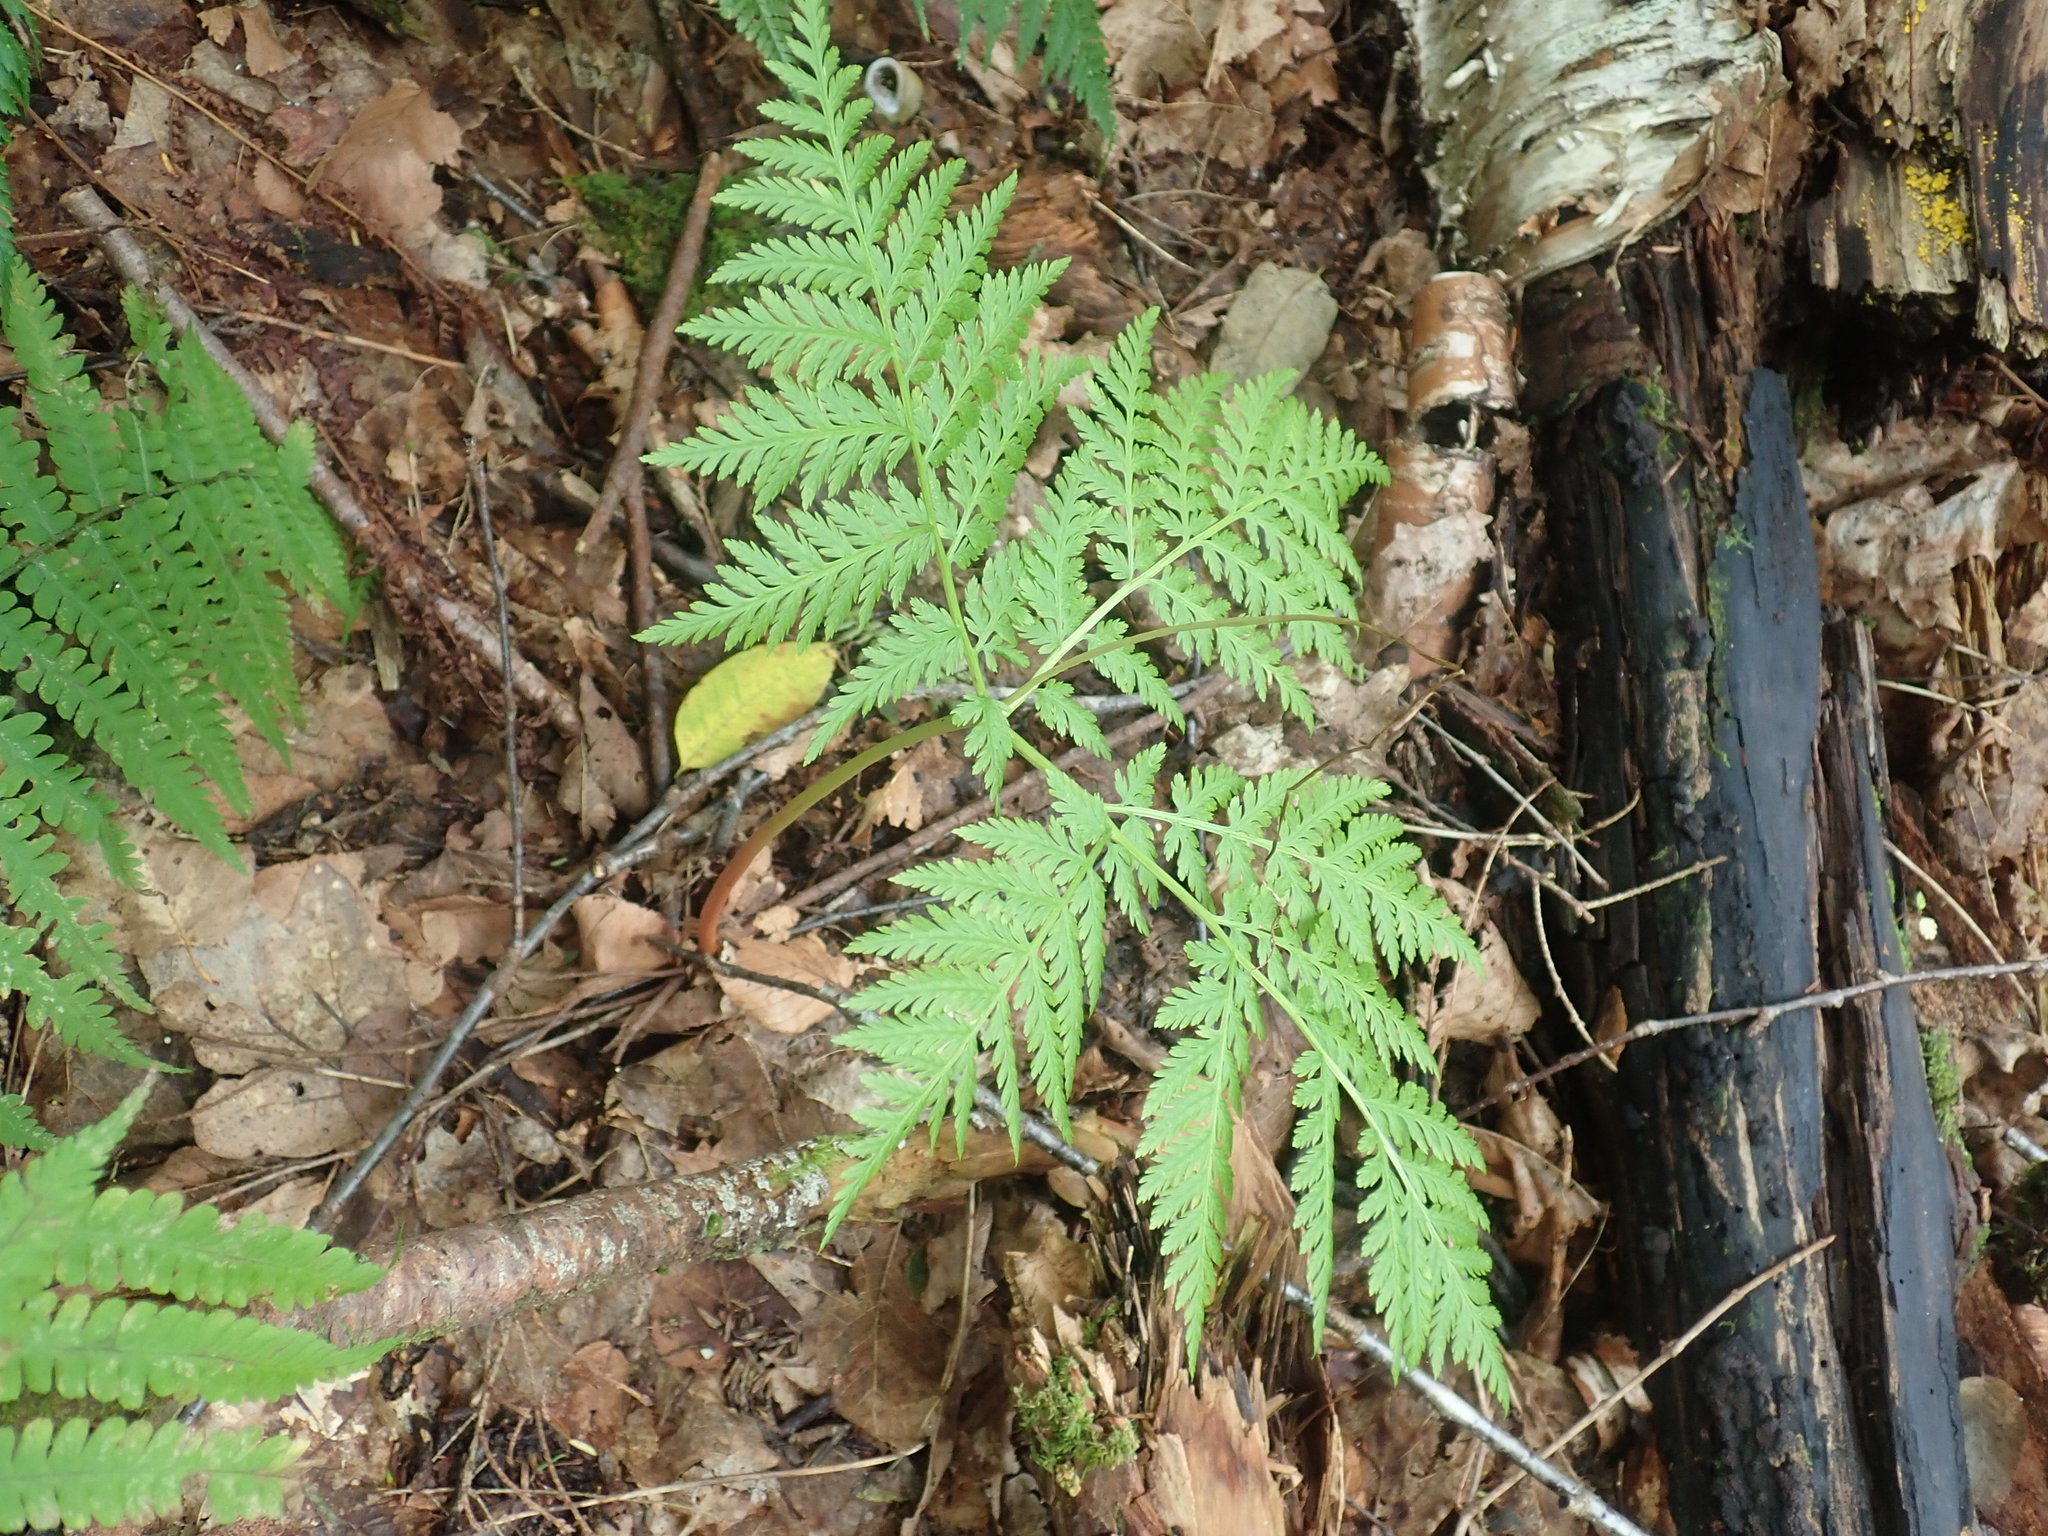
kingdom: Plantae
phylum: Tracheophyta
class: Polypodiopsida
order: Ophioglossales
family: Ophioglossaceae
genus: Botrypus
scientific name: Botrypus virginianus
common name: Common grapefern
